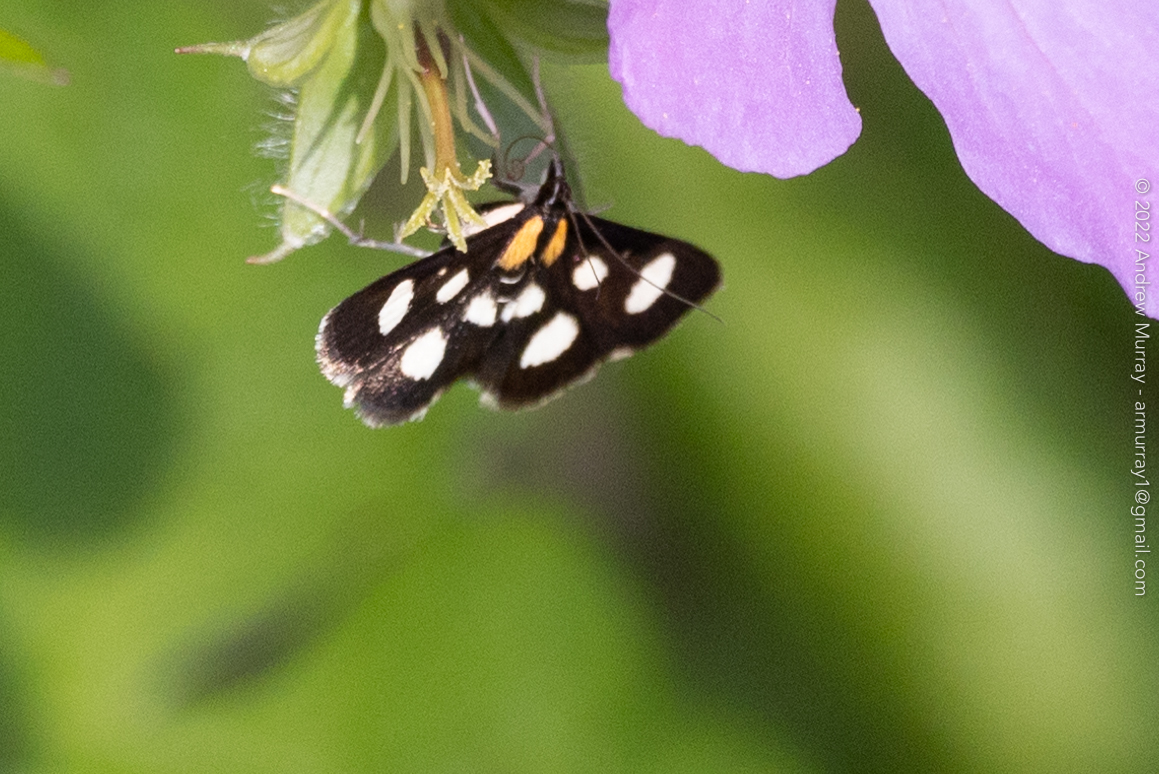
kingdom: Animalia
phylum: Arthropoda
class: Insecta
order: Lepidoptera
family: Crambidae
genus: Anania
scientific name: Anania funebris
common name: White-spotted sable moth
